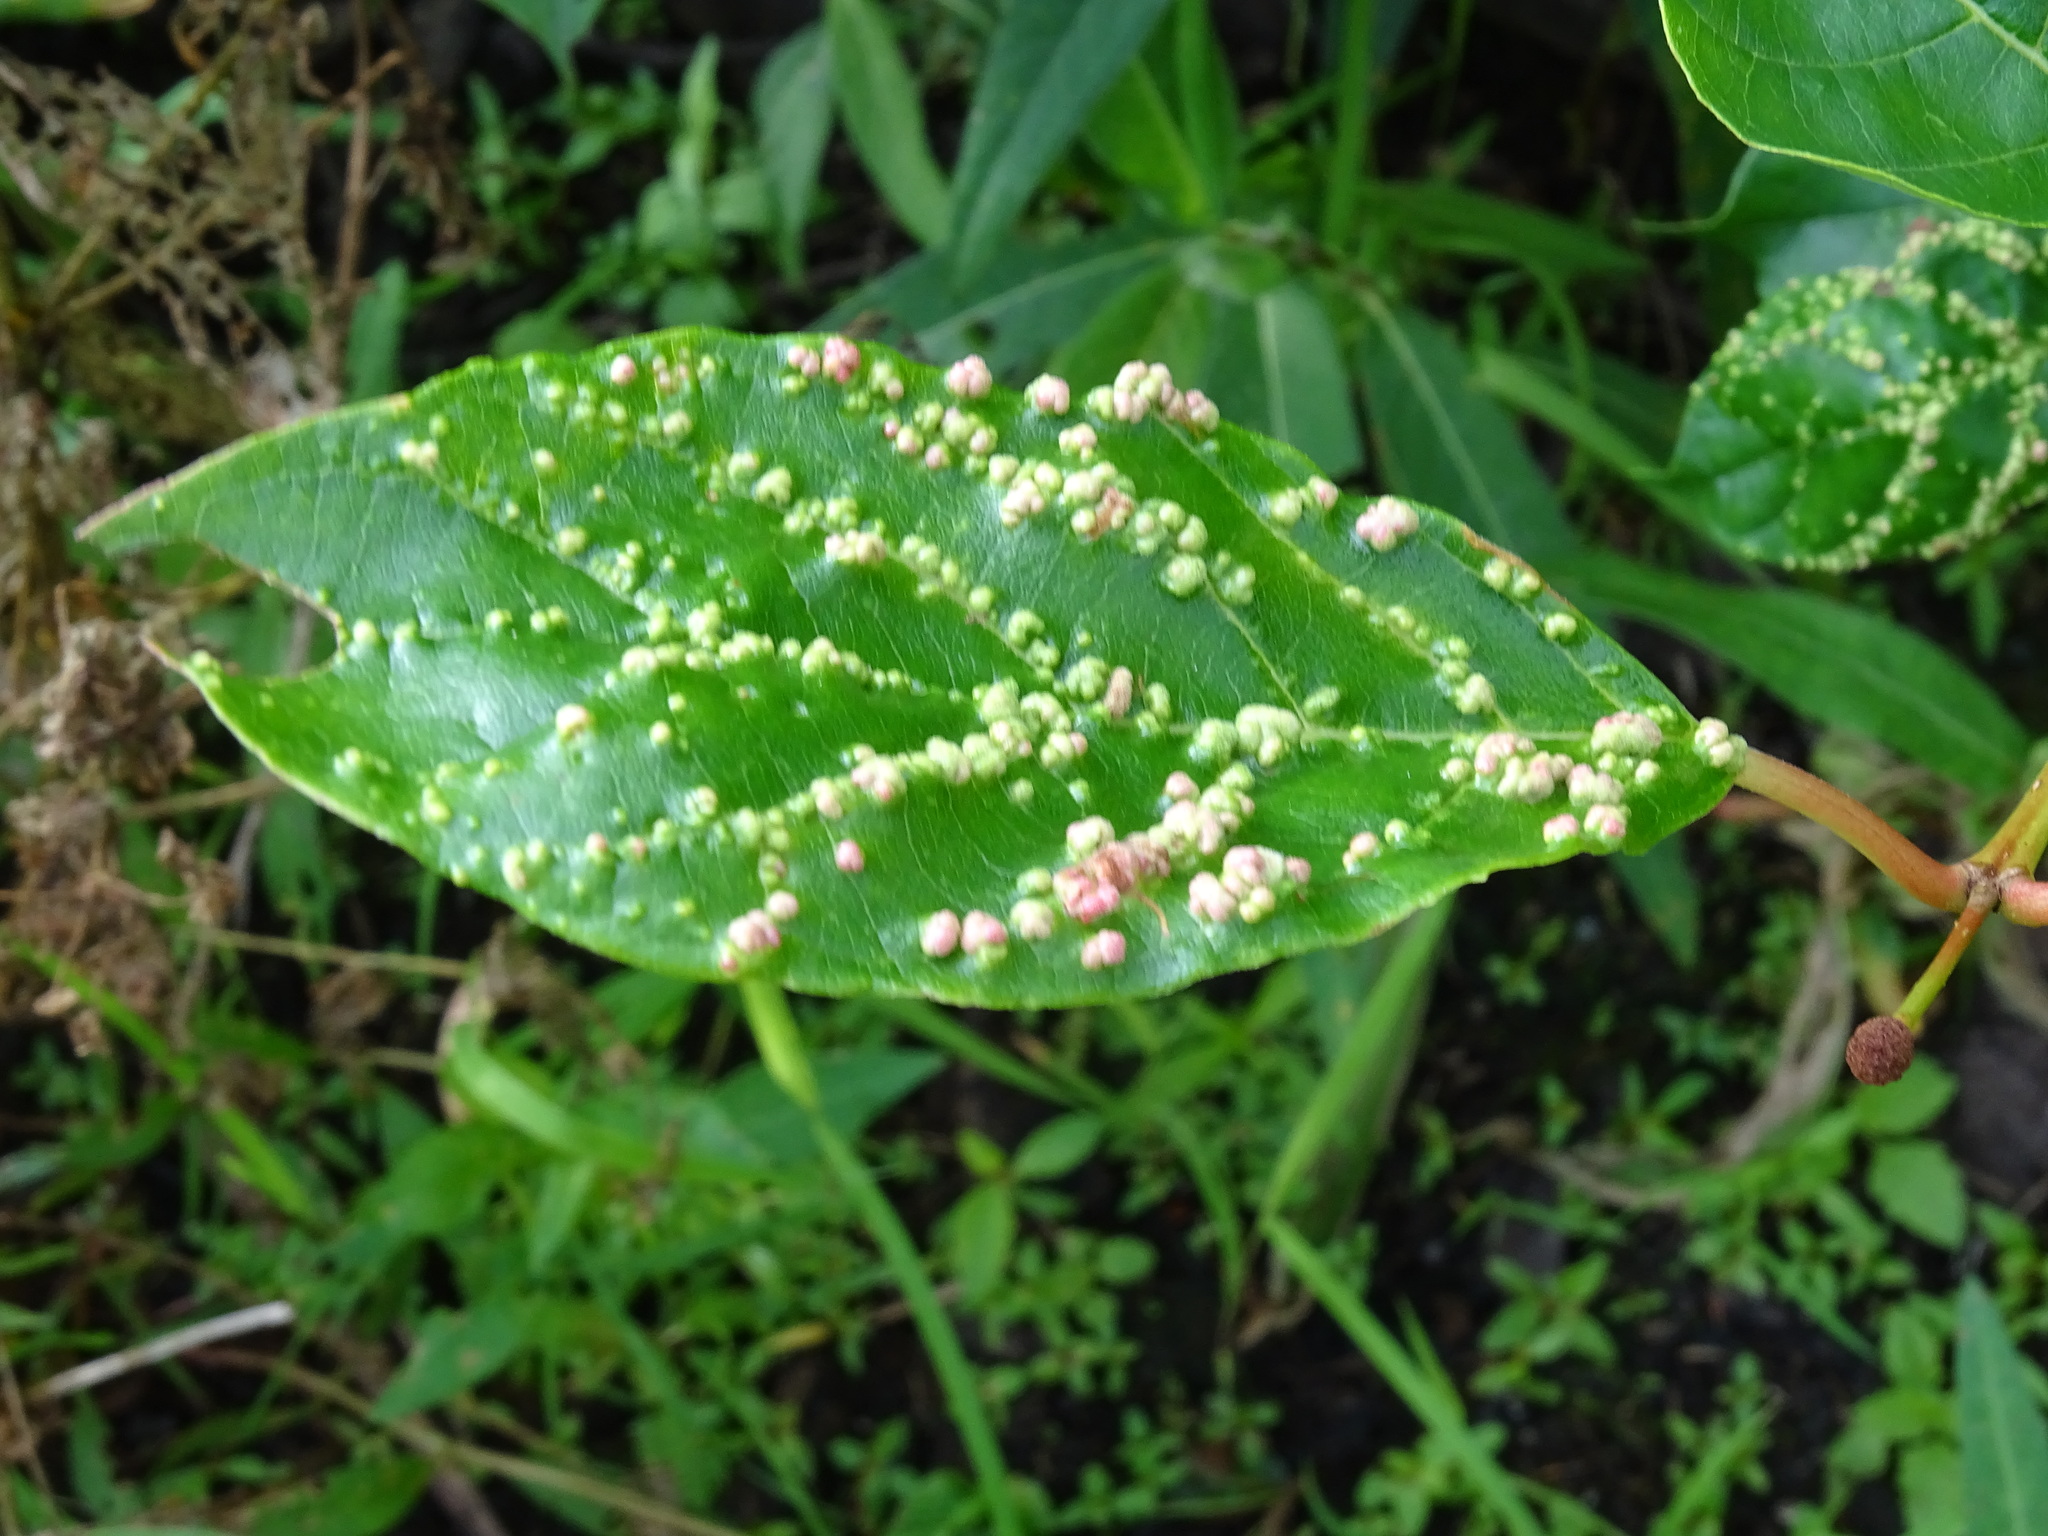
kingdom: Animalia
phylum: Arthropoda
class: Arachnida
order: Trombidiformes
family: Eriophyidae
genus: Aceria
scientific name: Aceria
